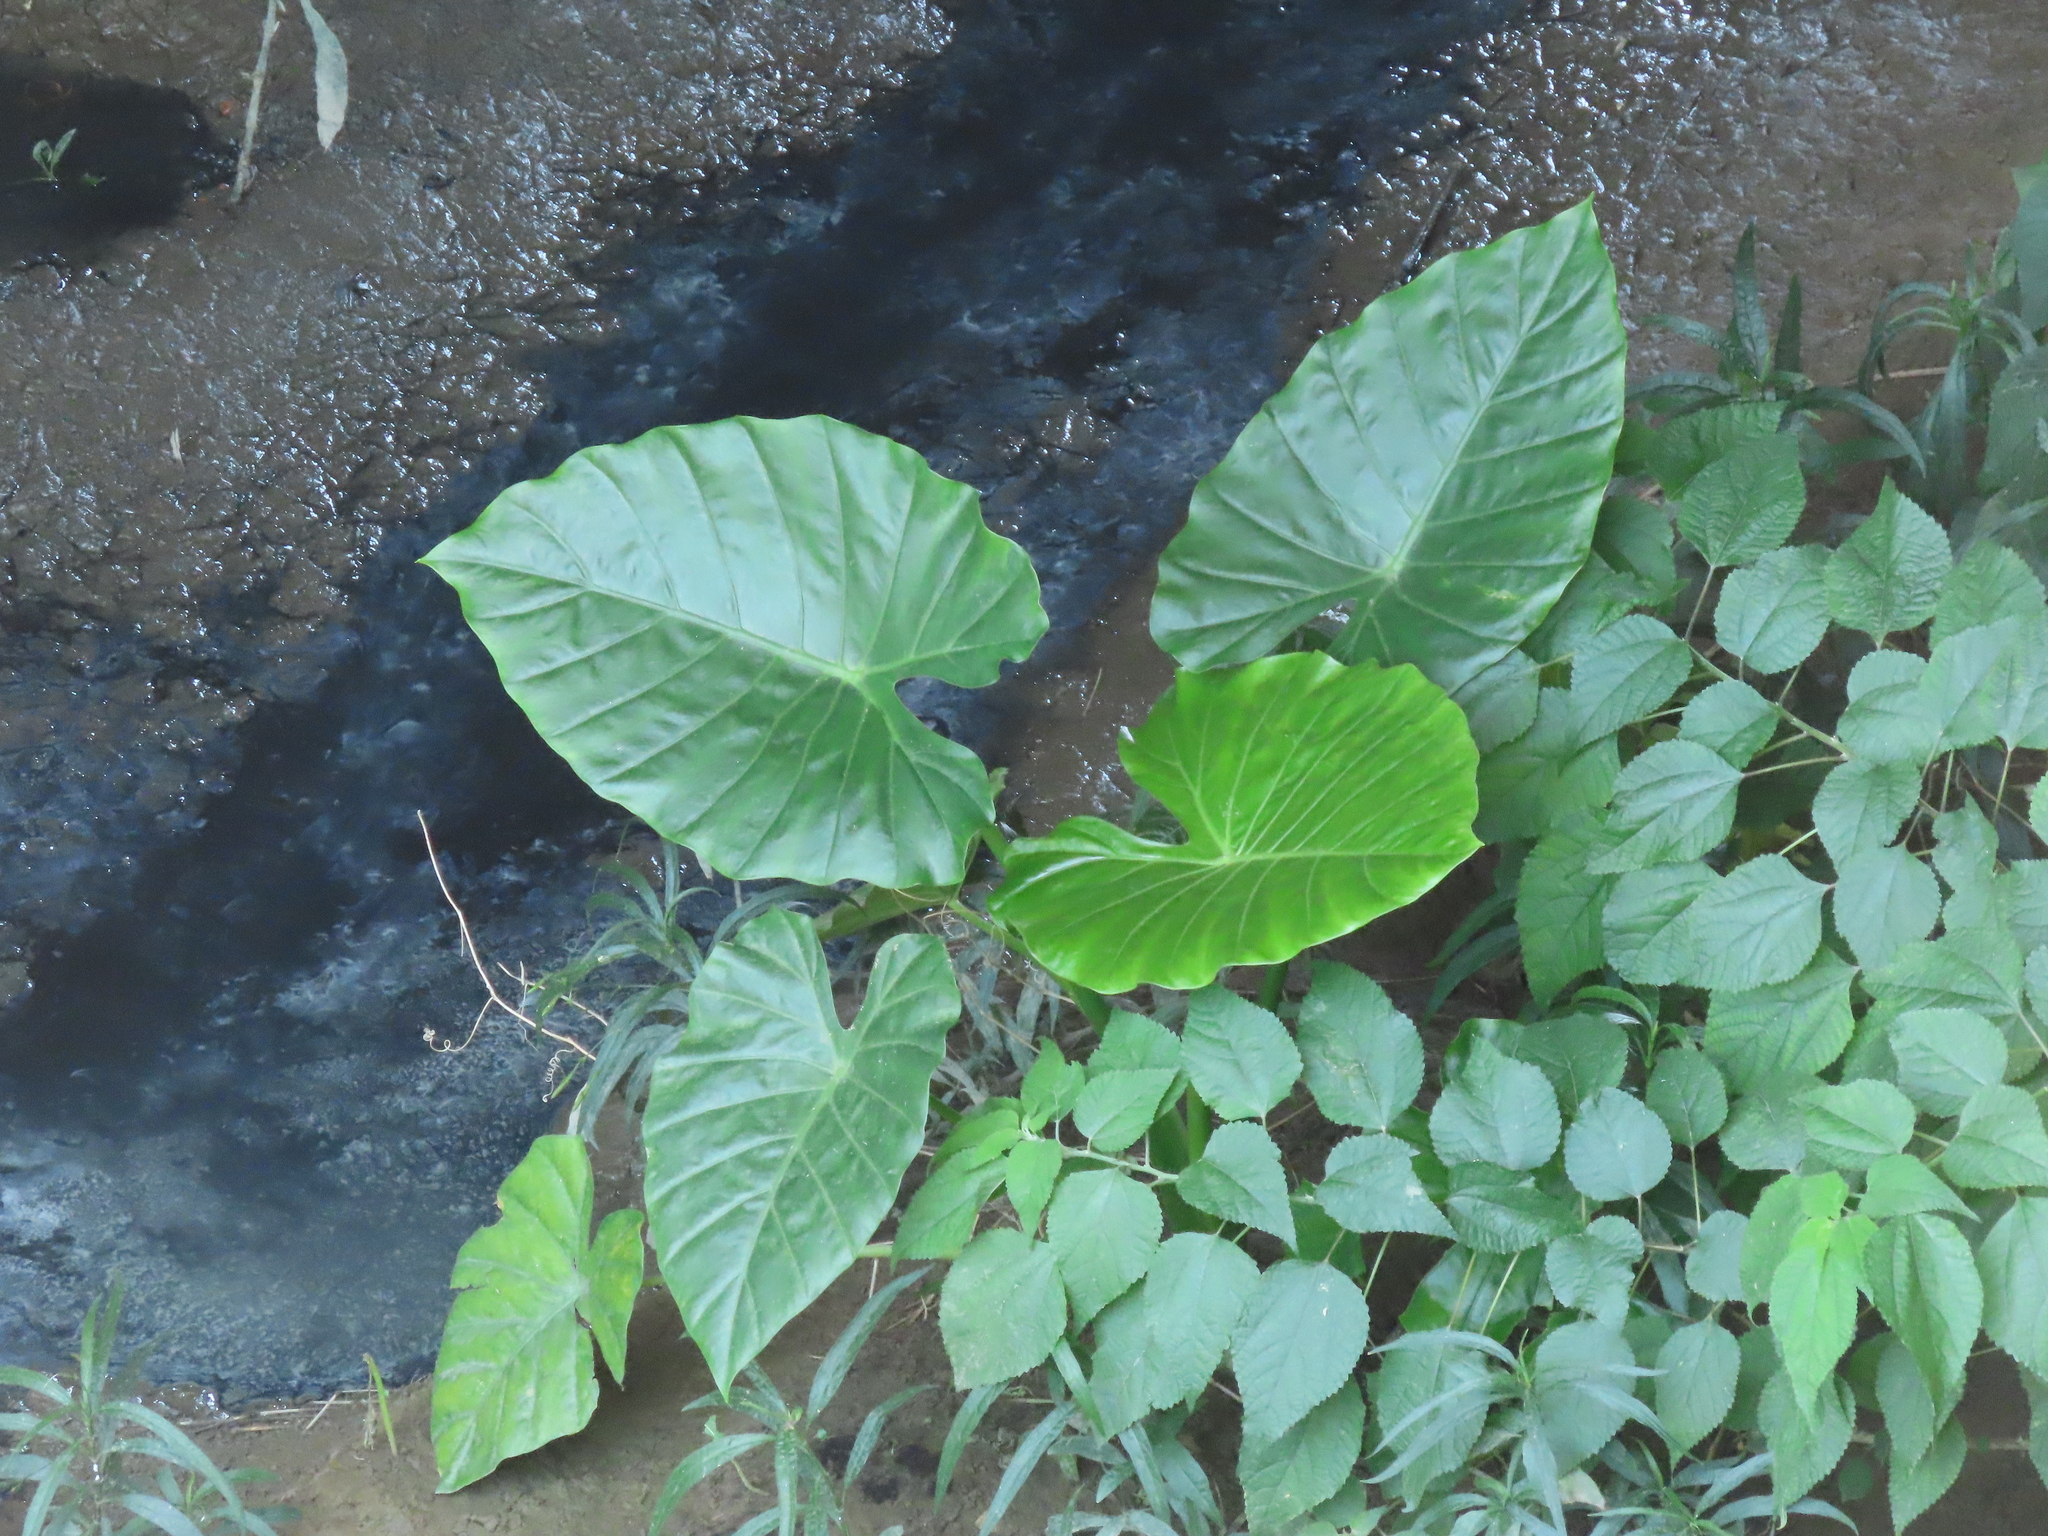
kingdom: Plantae
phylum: Tracheophyta
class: Liliopsida
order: Alismatales
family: Araceae
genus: Alocasia
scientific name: Alocasia odora
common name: Asian taro
